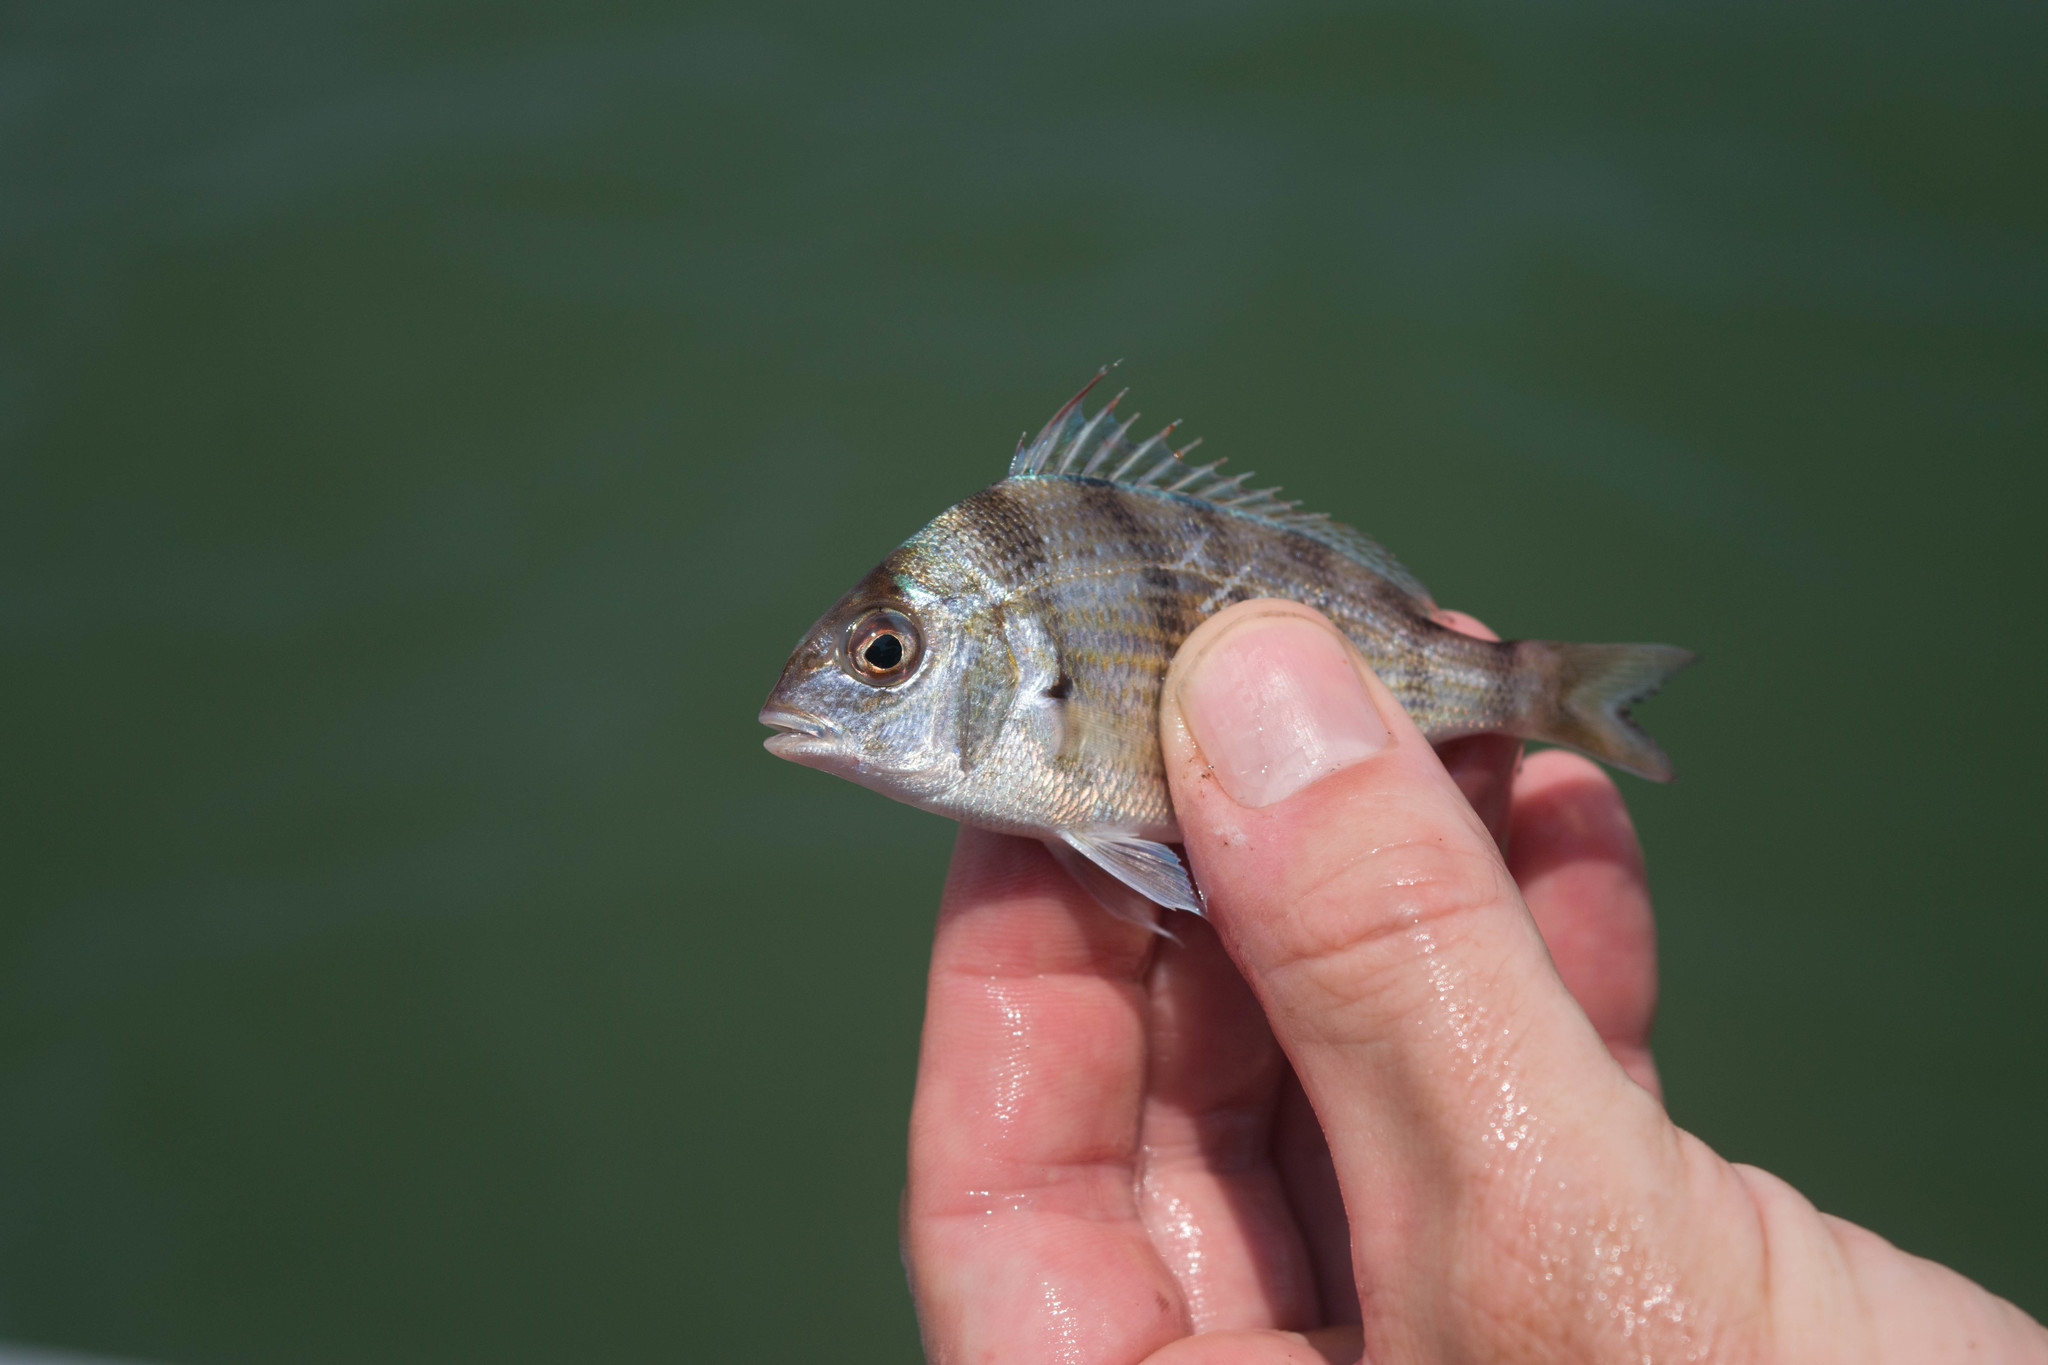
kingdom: Animalia
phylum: Chordata
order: Perciformes
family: Sparidae
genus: Lagodon
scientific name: Lagodon rhomboides
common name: Pinfish
